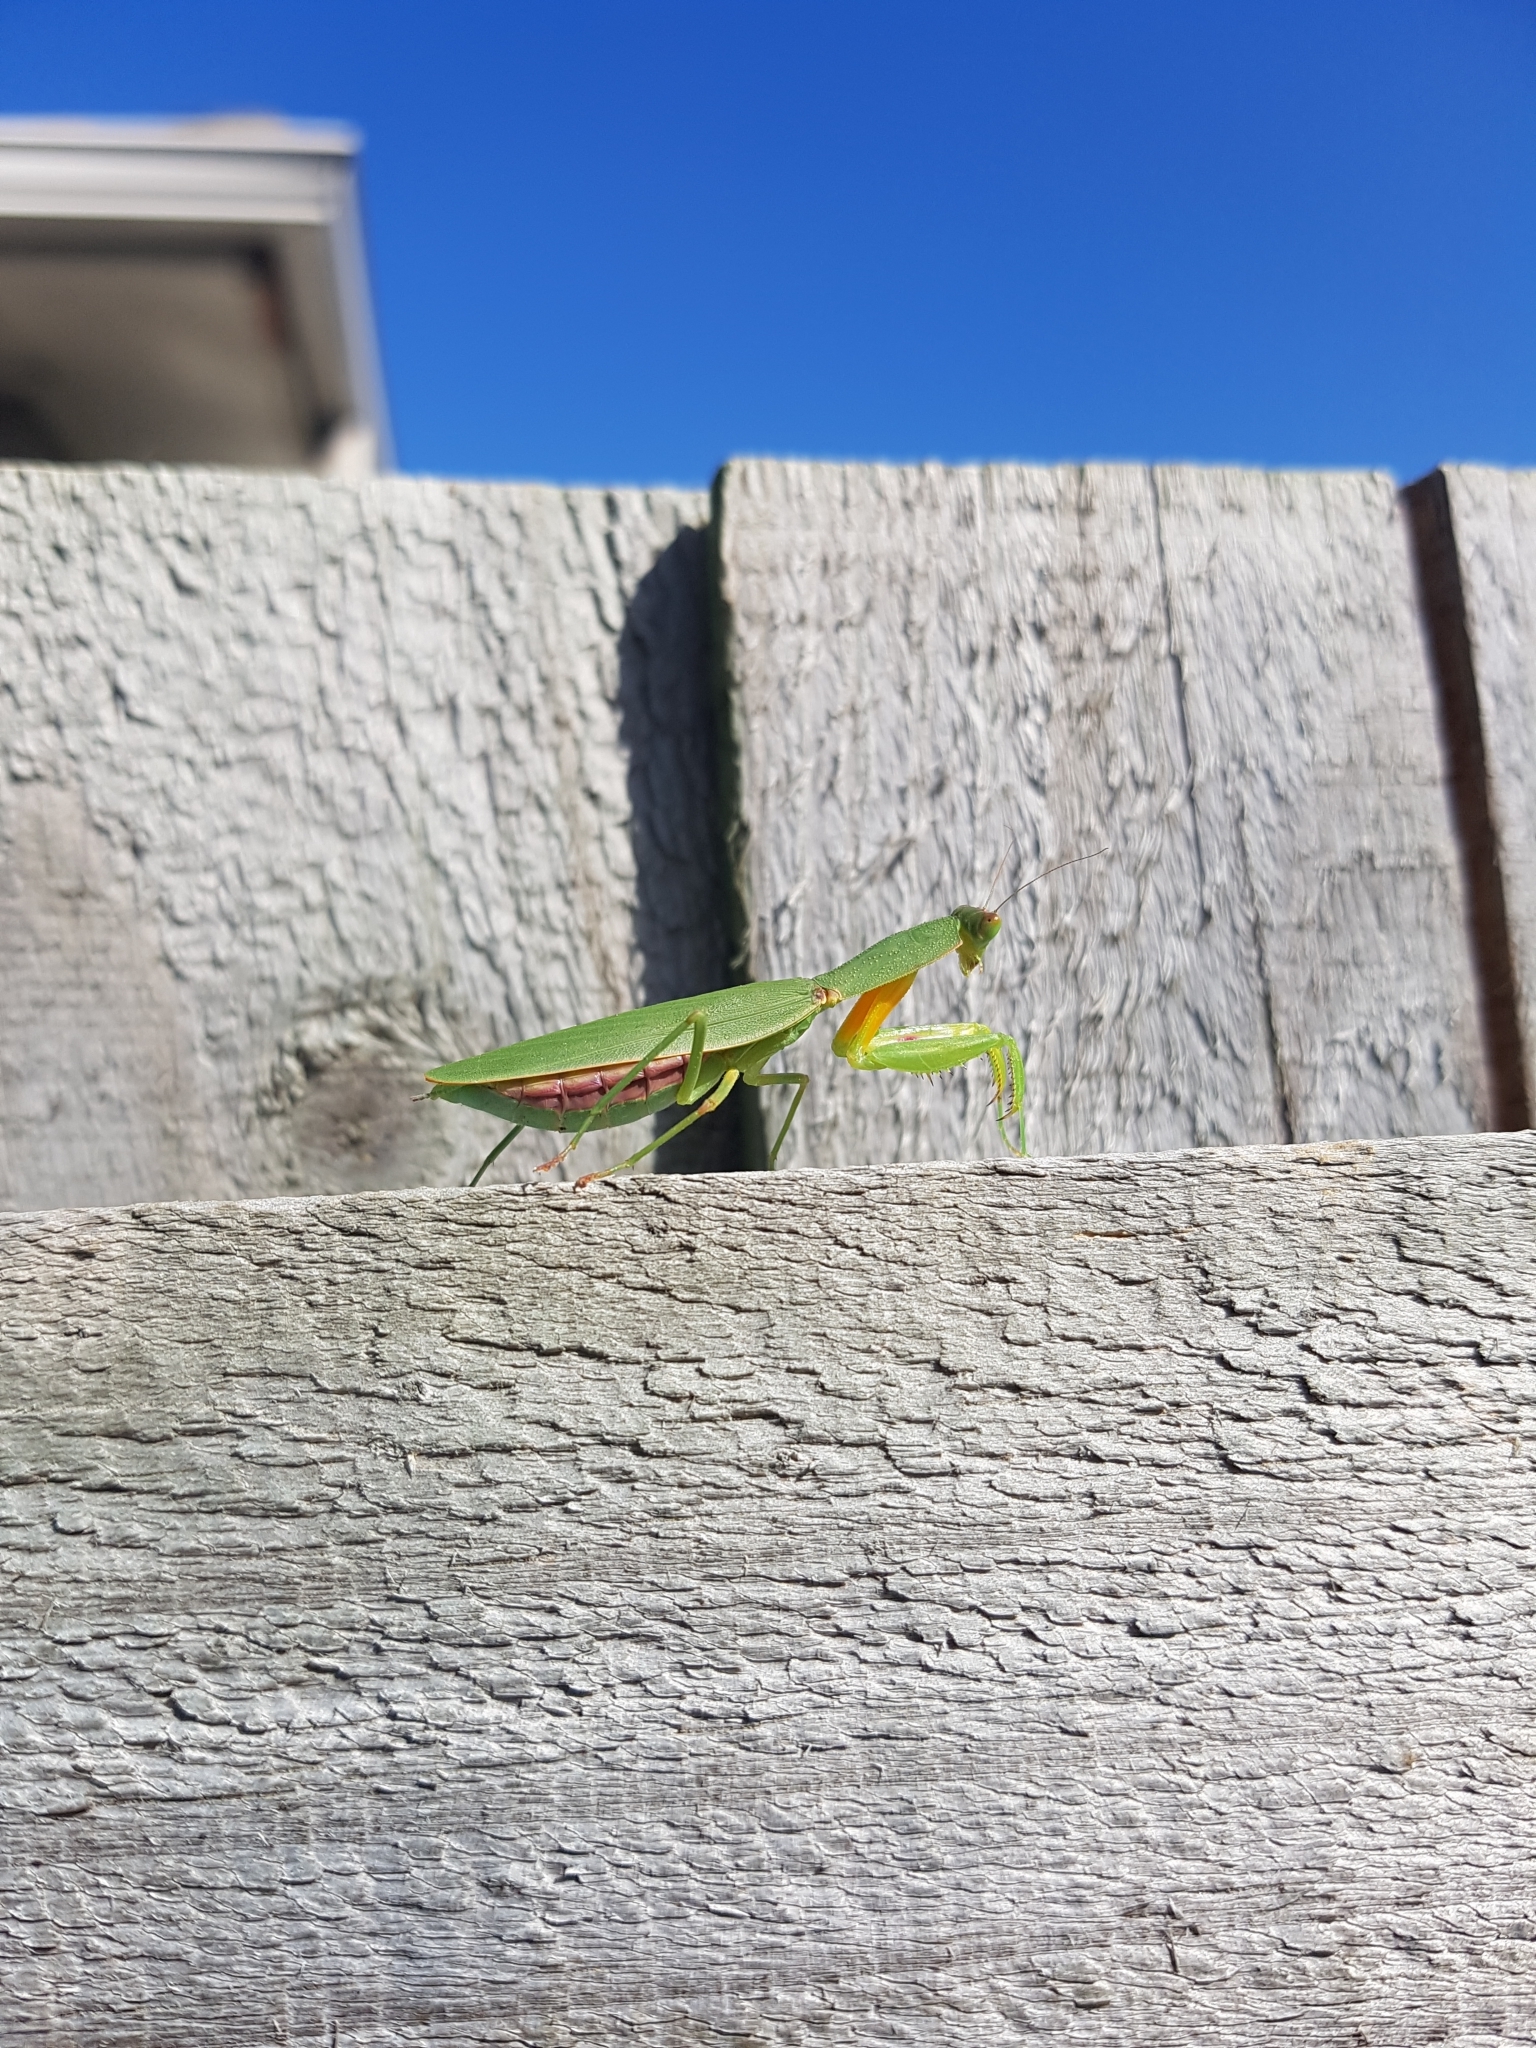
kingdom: Animalia
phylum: Arthropoda
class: Insecta
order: Mantodea
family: Mantidae
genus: Orthodera
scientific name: Orthodera novaezealandiae
